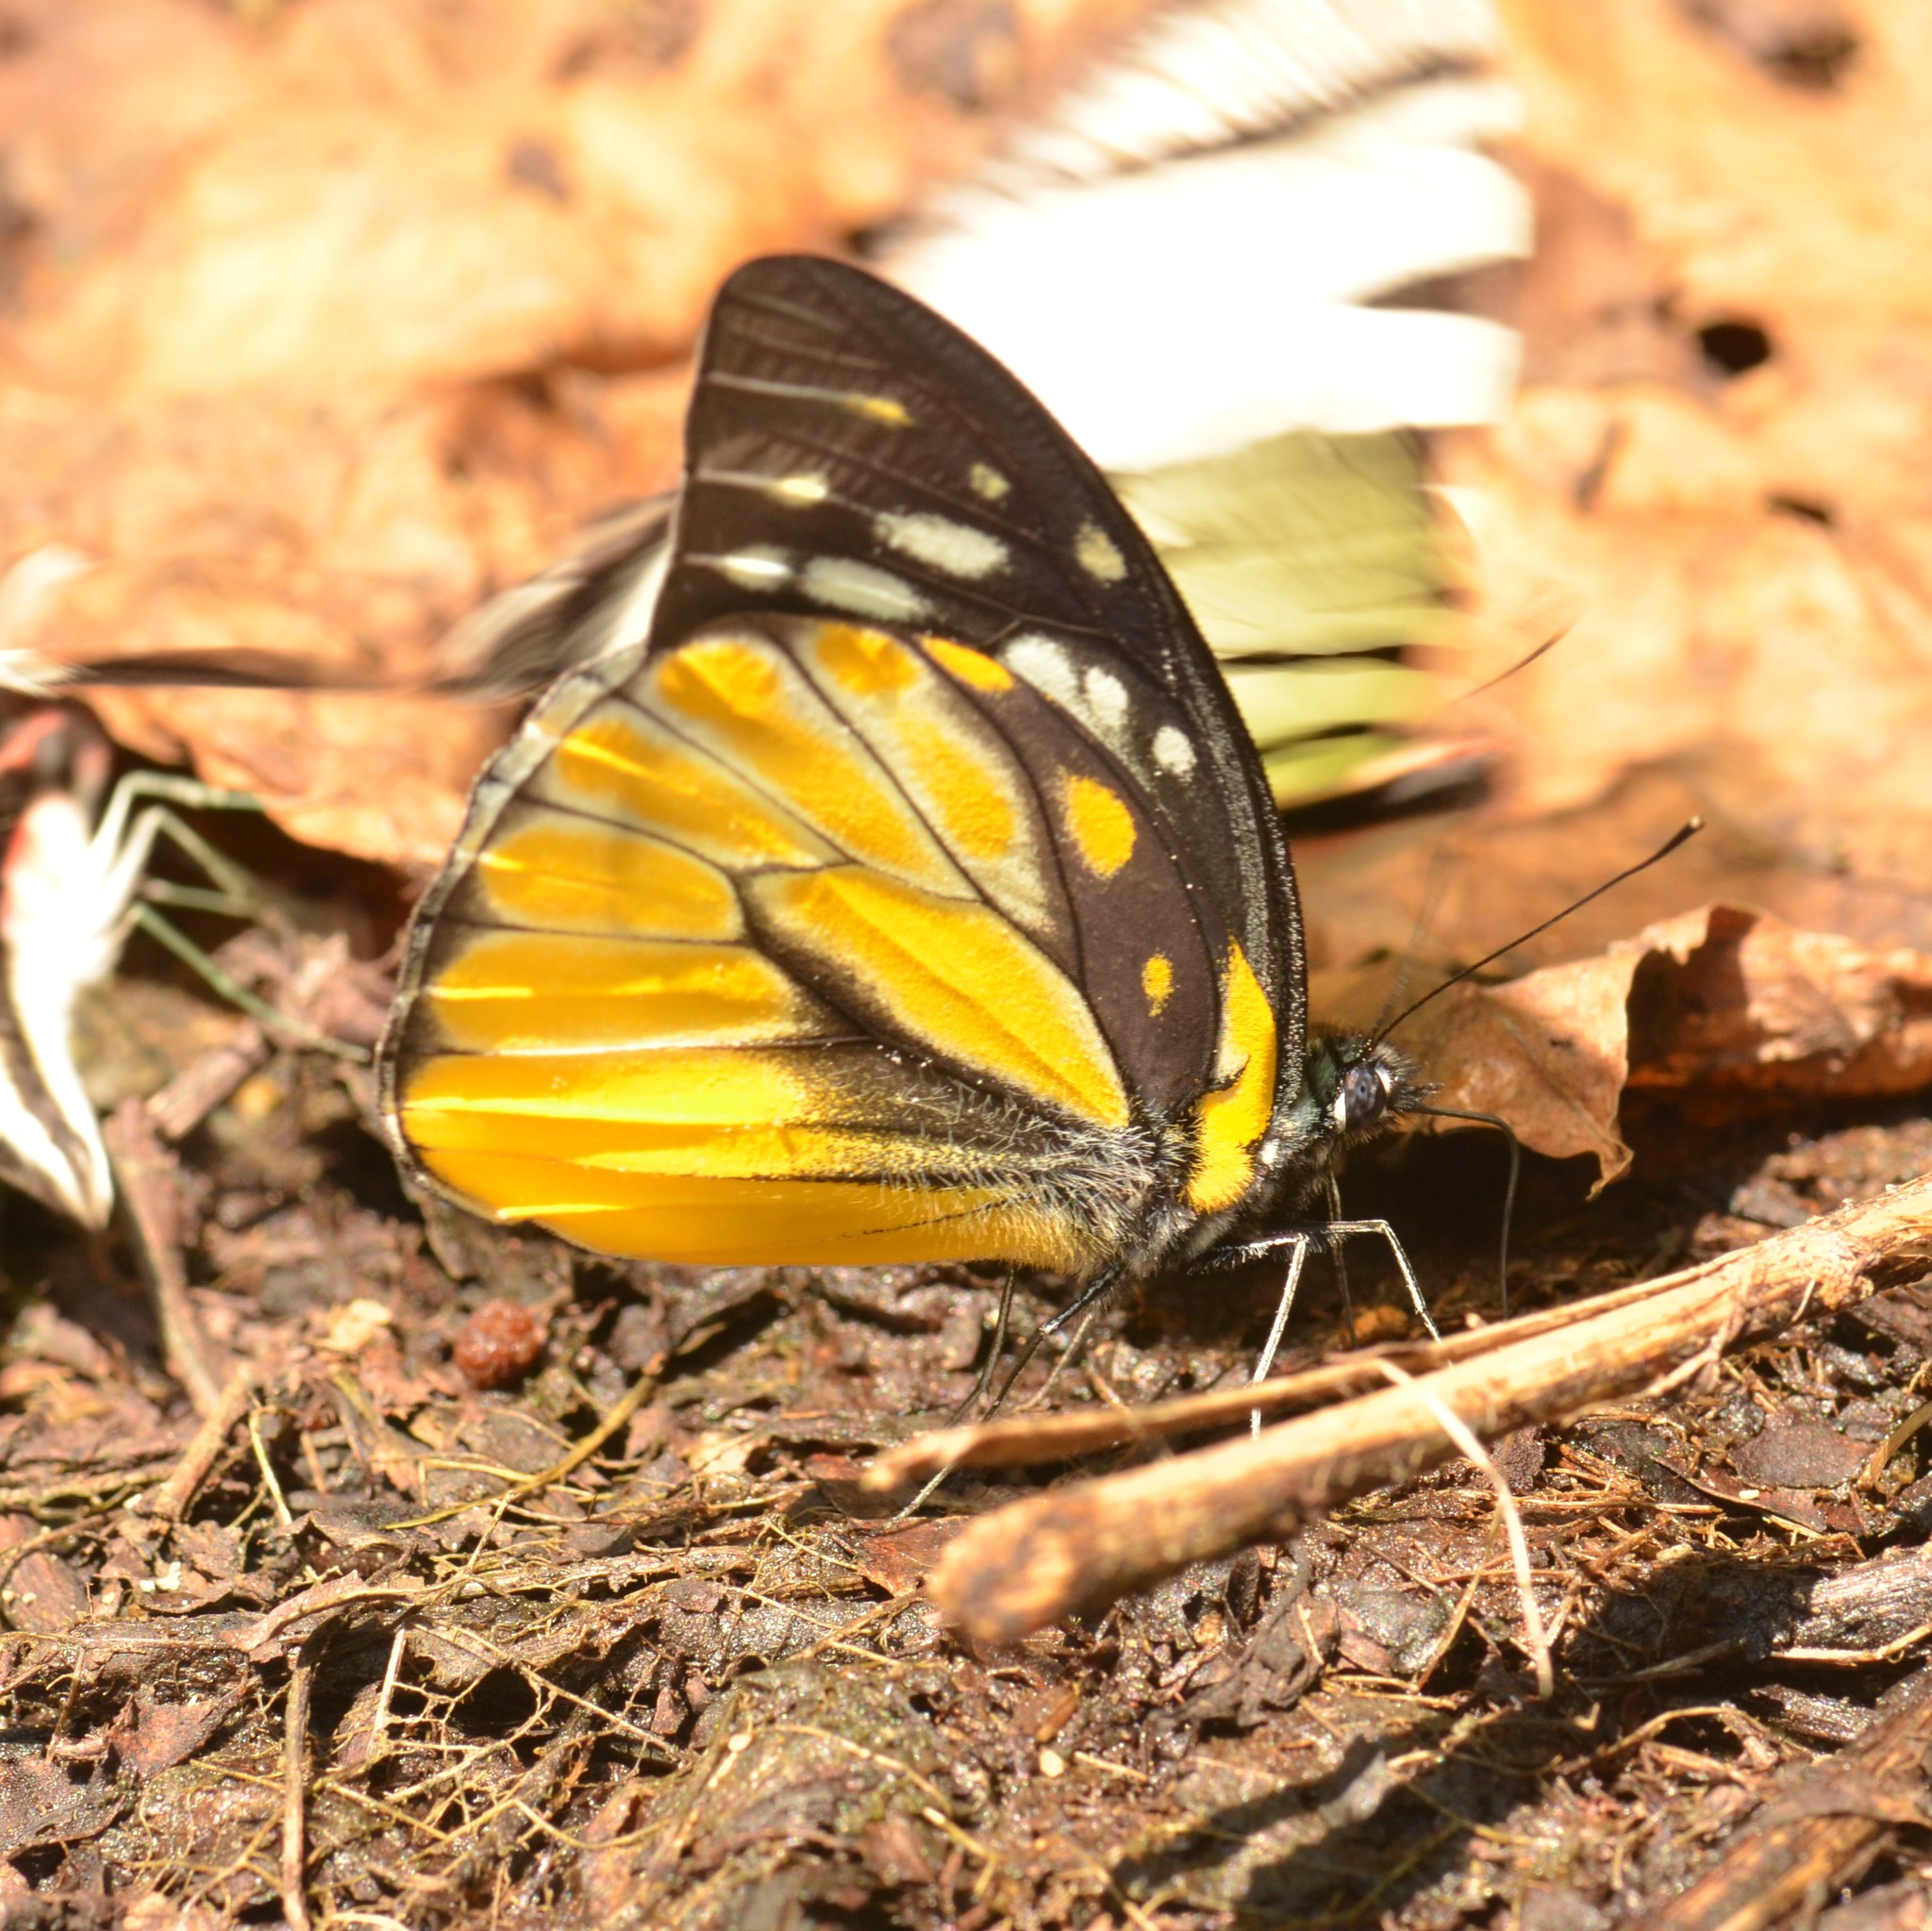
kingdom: Animalia
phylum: Arthropoda
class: Insecta
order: Lepidoptera
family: Pieridae
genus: Prioneris
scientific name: Prioneris thestylis
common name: Spotted sawtooth
